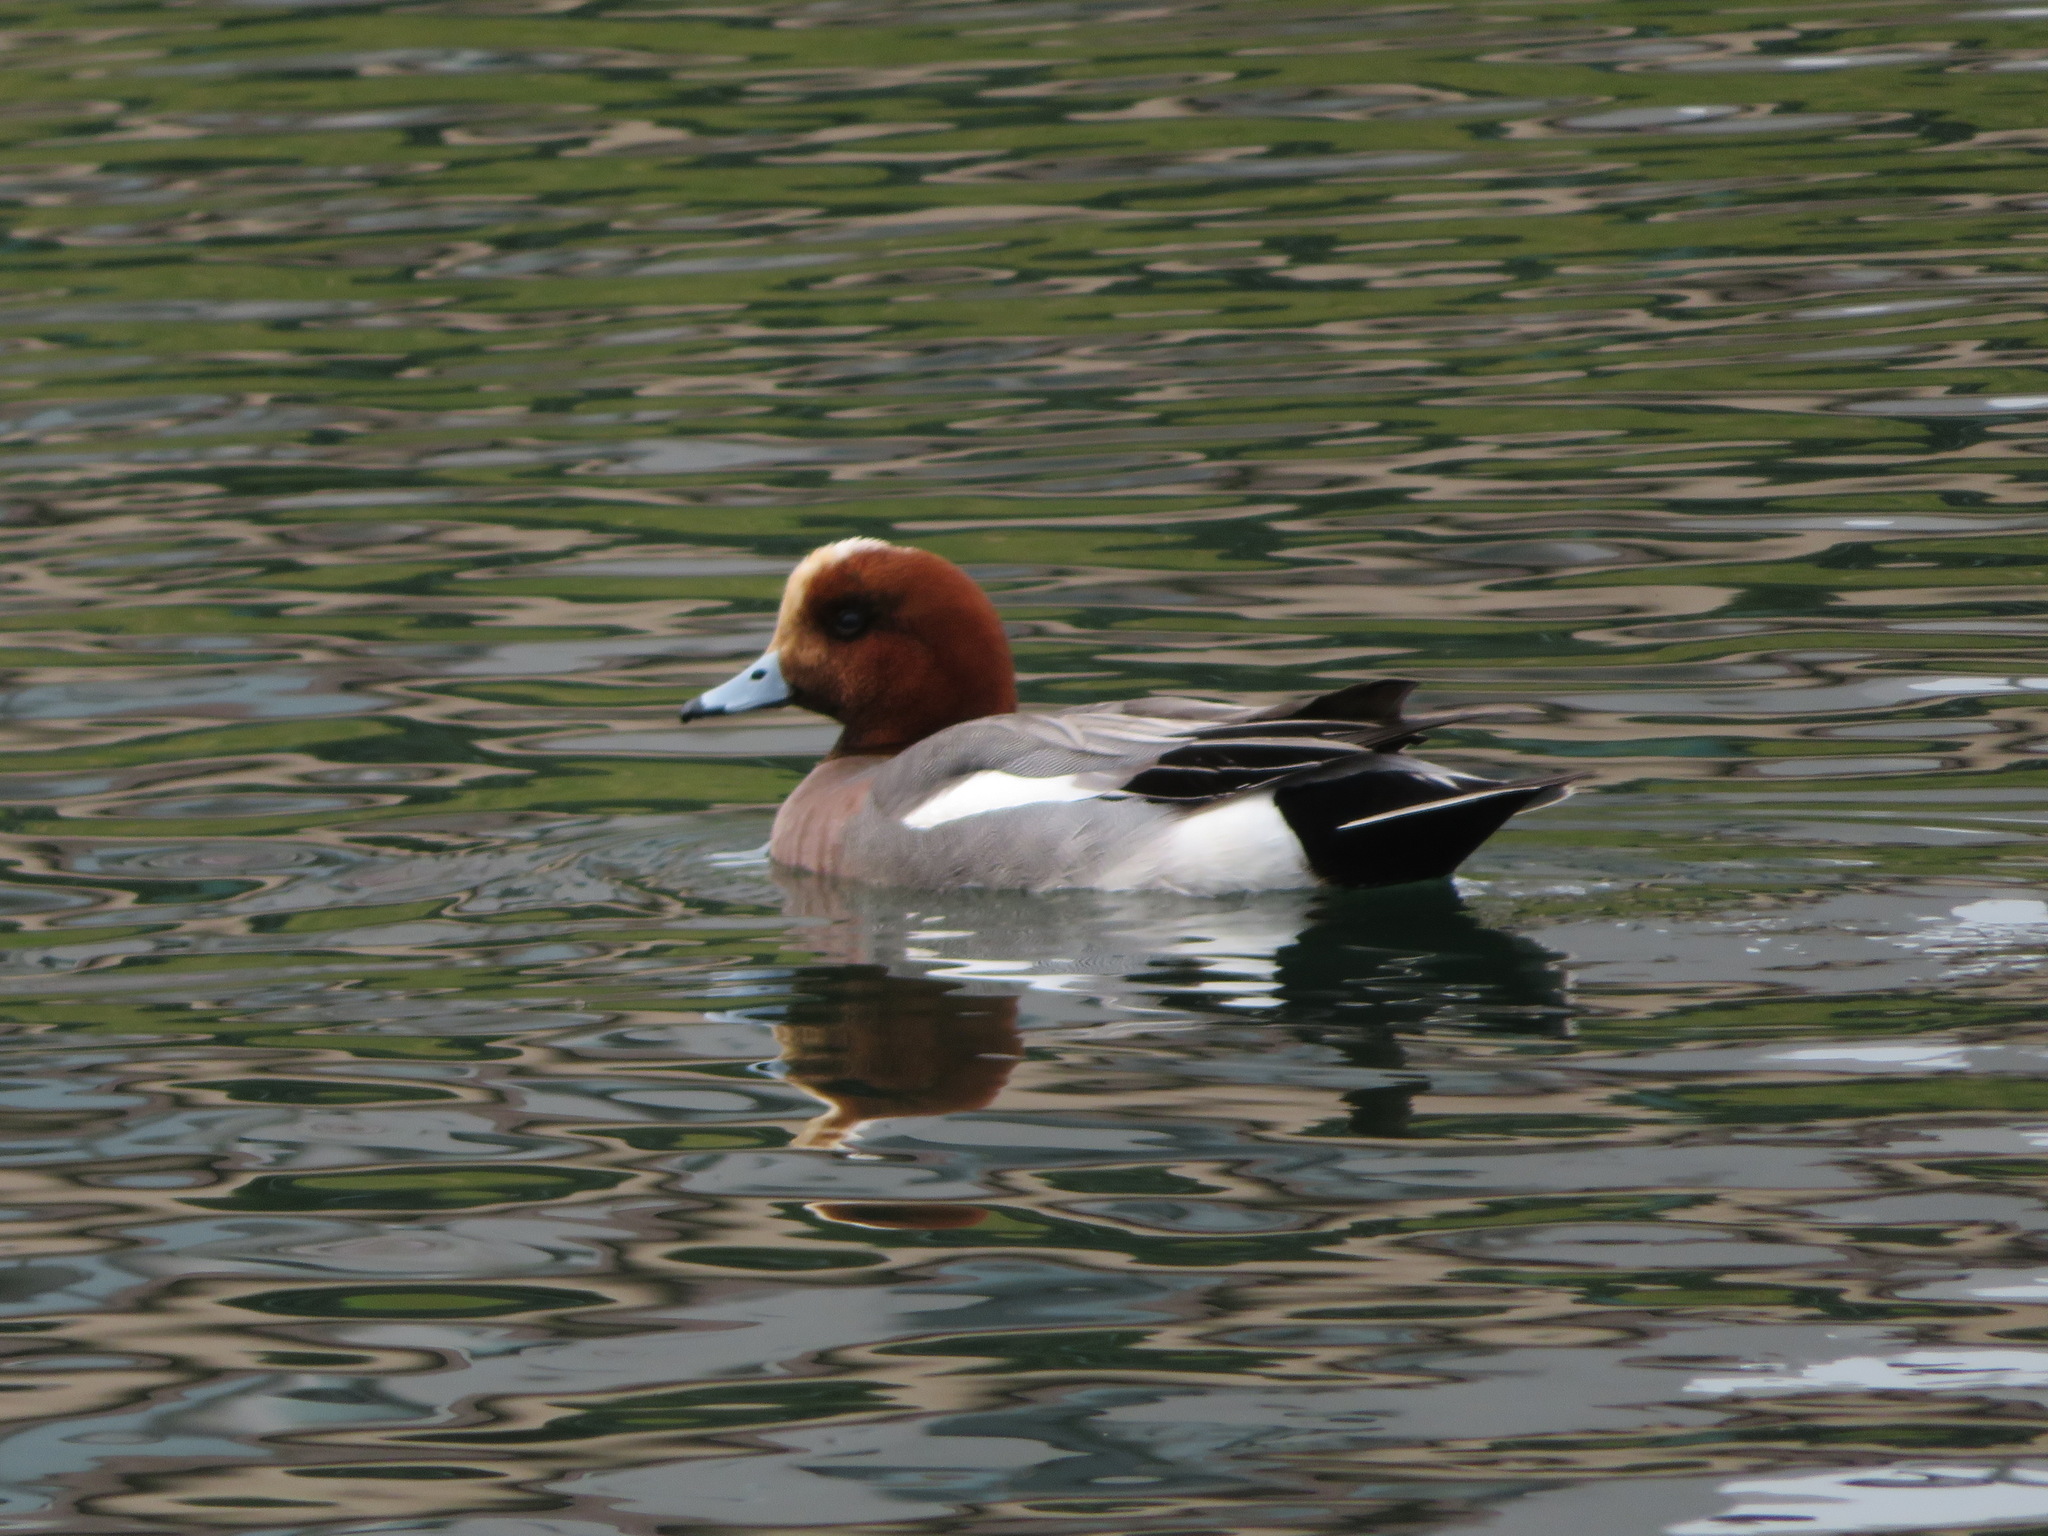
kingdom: Animalia
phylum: Chordata
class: Aves
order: Anseriformes
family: Anatidae
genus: Mareca
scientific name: Mareca penelope
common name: Eurasian wigeon
